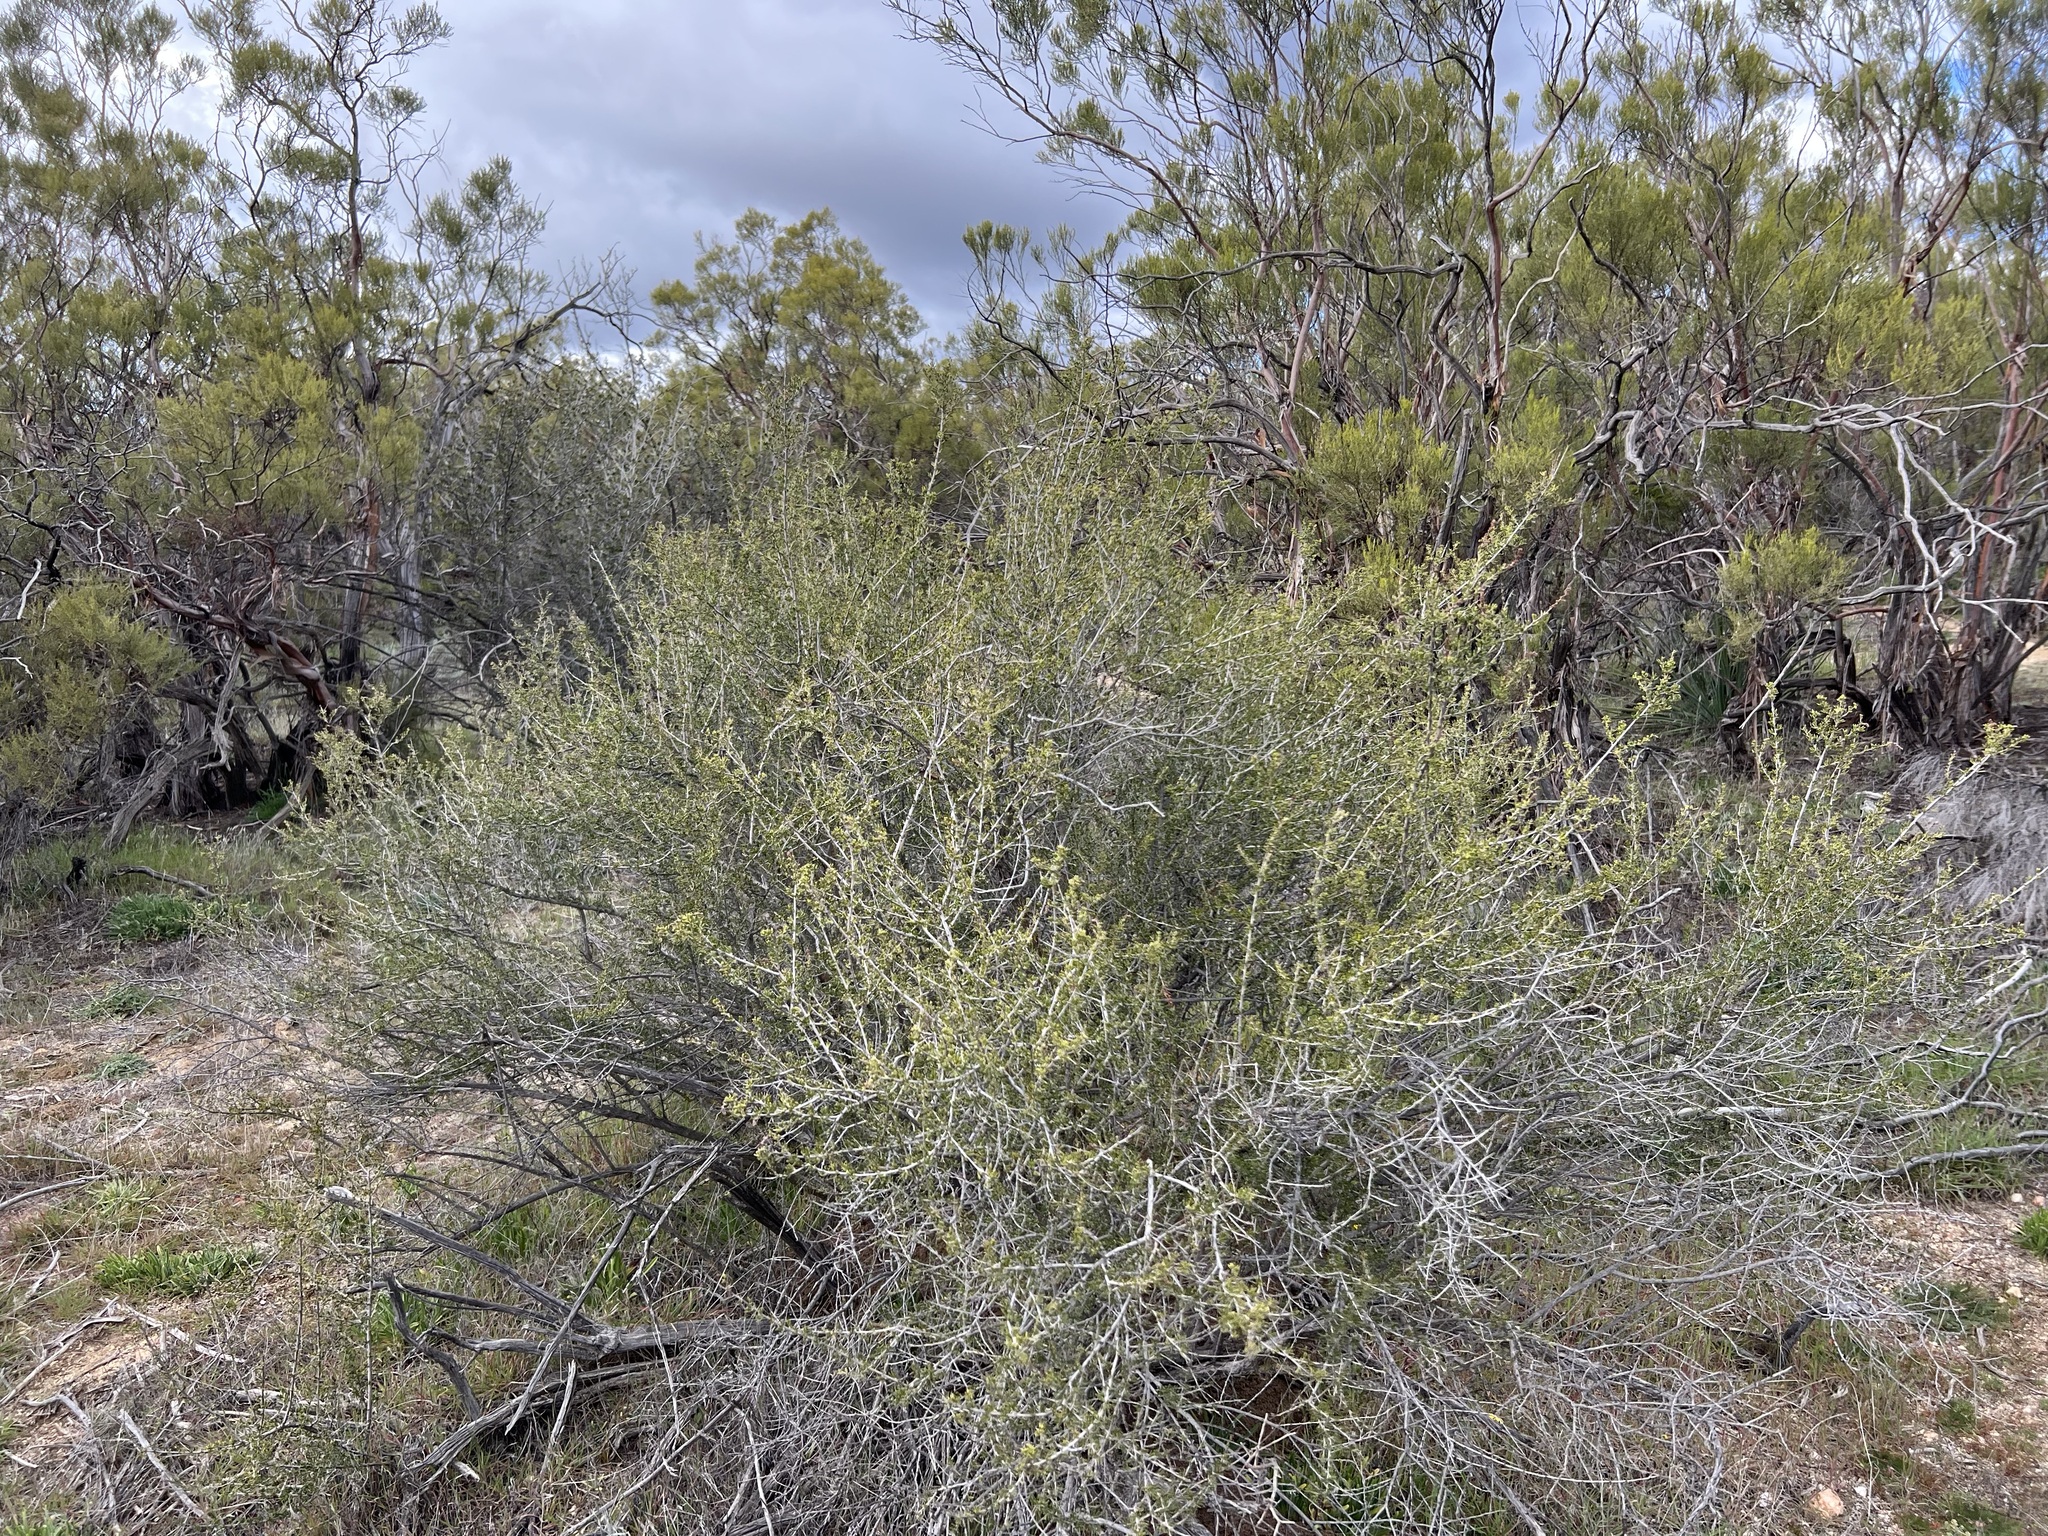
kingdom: Plantae
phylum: Tracheophyta
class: Magnoliopsida
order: Rosales
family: Rosaceae
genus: Adenostoma
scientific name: Adenostoma fasciculatum
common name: Chamise
